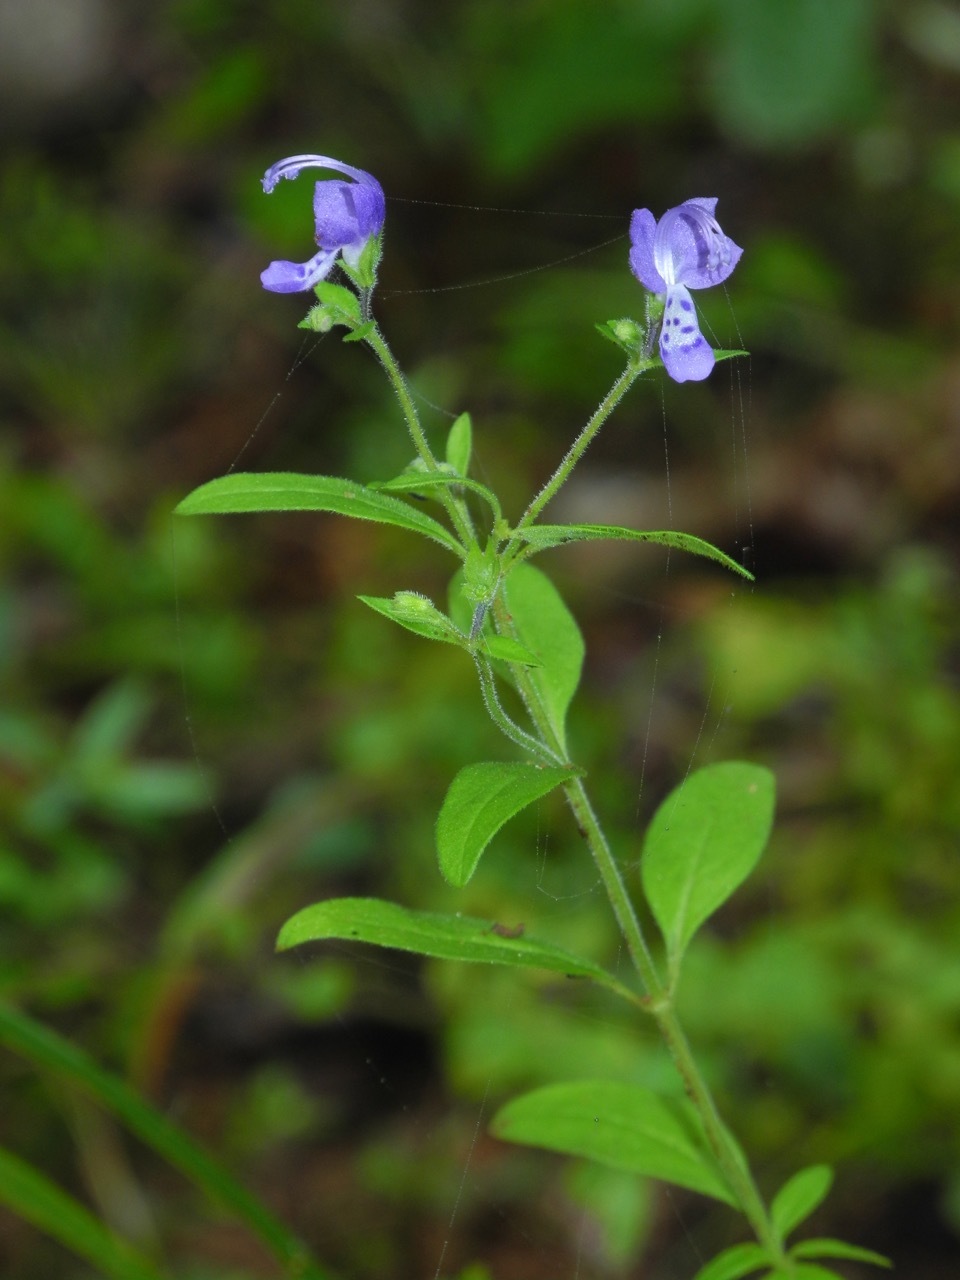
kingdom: Plantae
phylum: Tracheophyta
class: Magnoliopsida
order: Lamiales
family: Lamiaceae
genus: Trichostema
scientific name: Trichostema dichotomum
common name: Bastard pennyroyal
